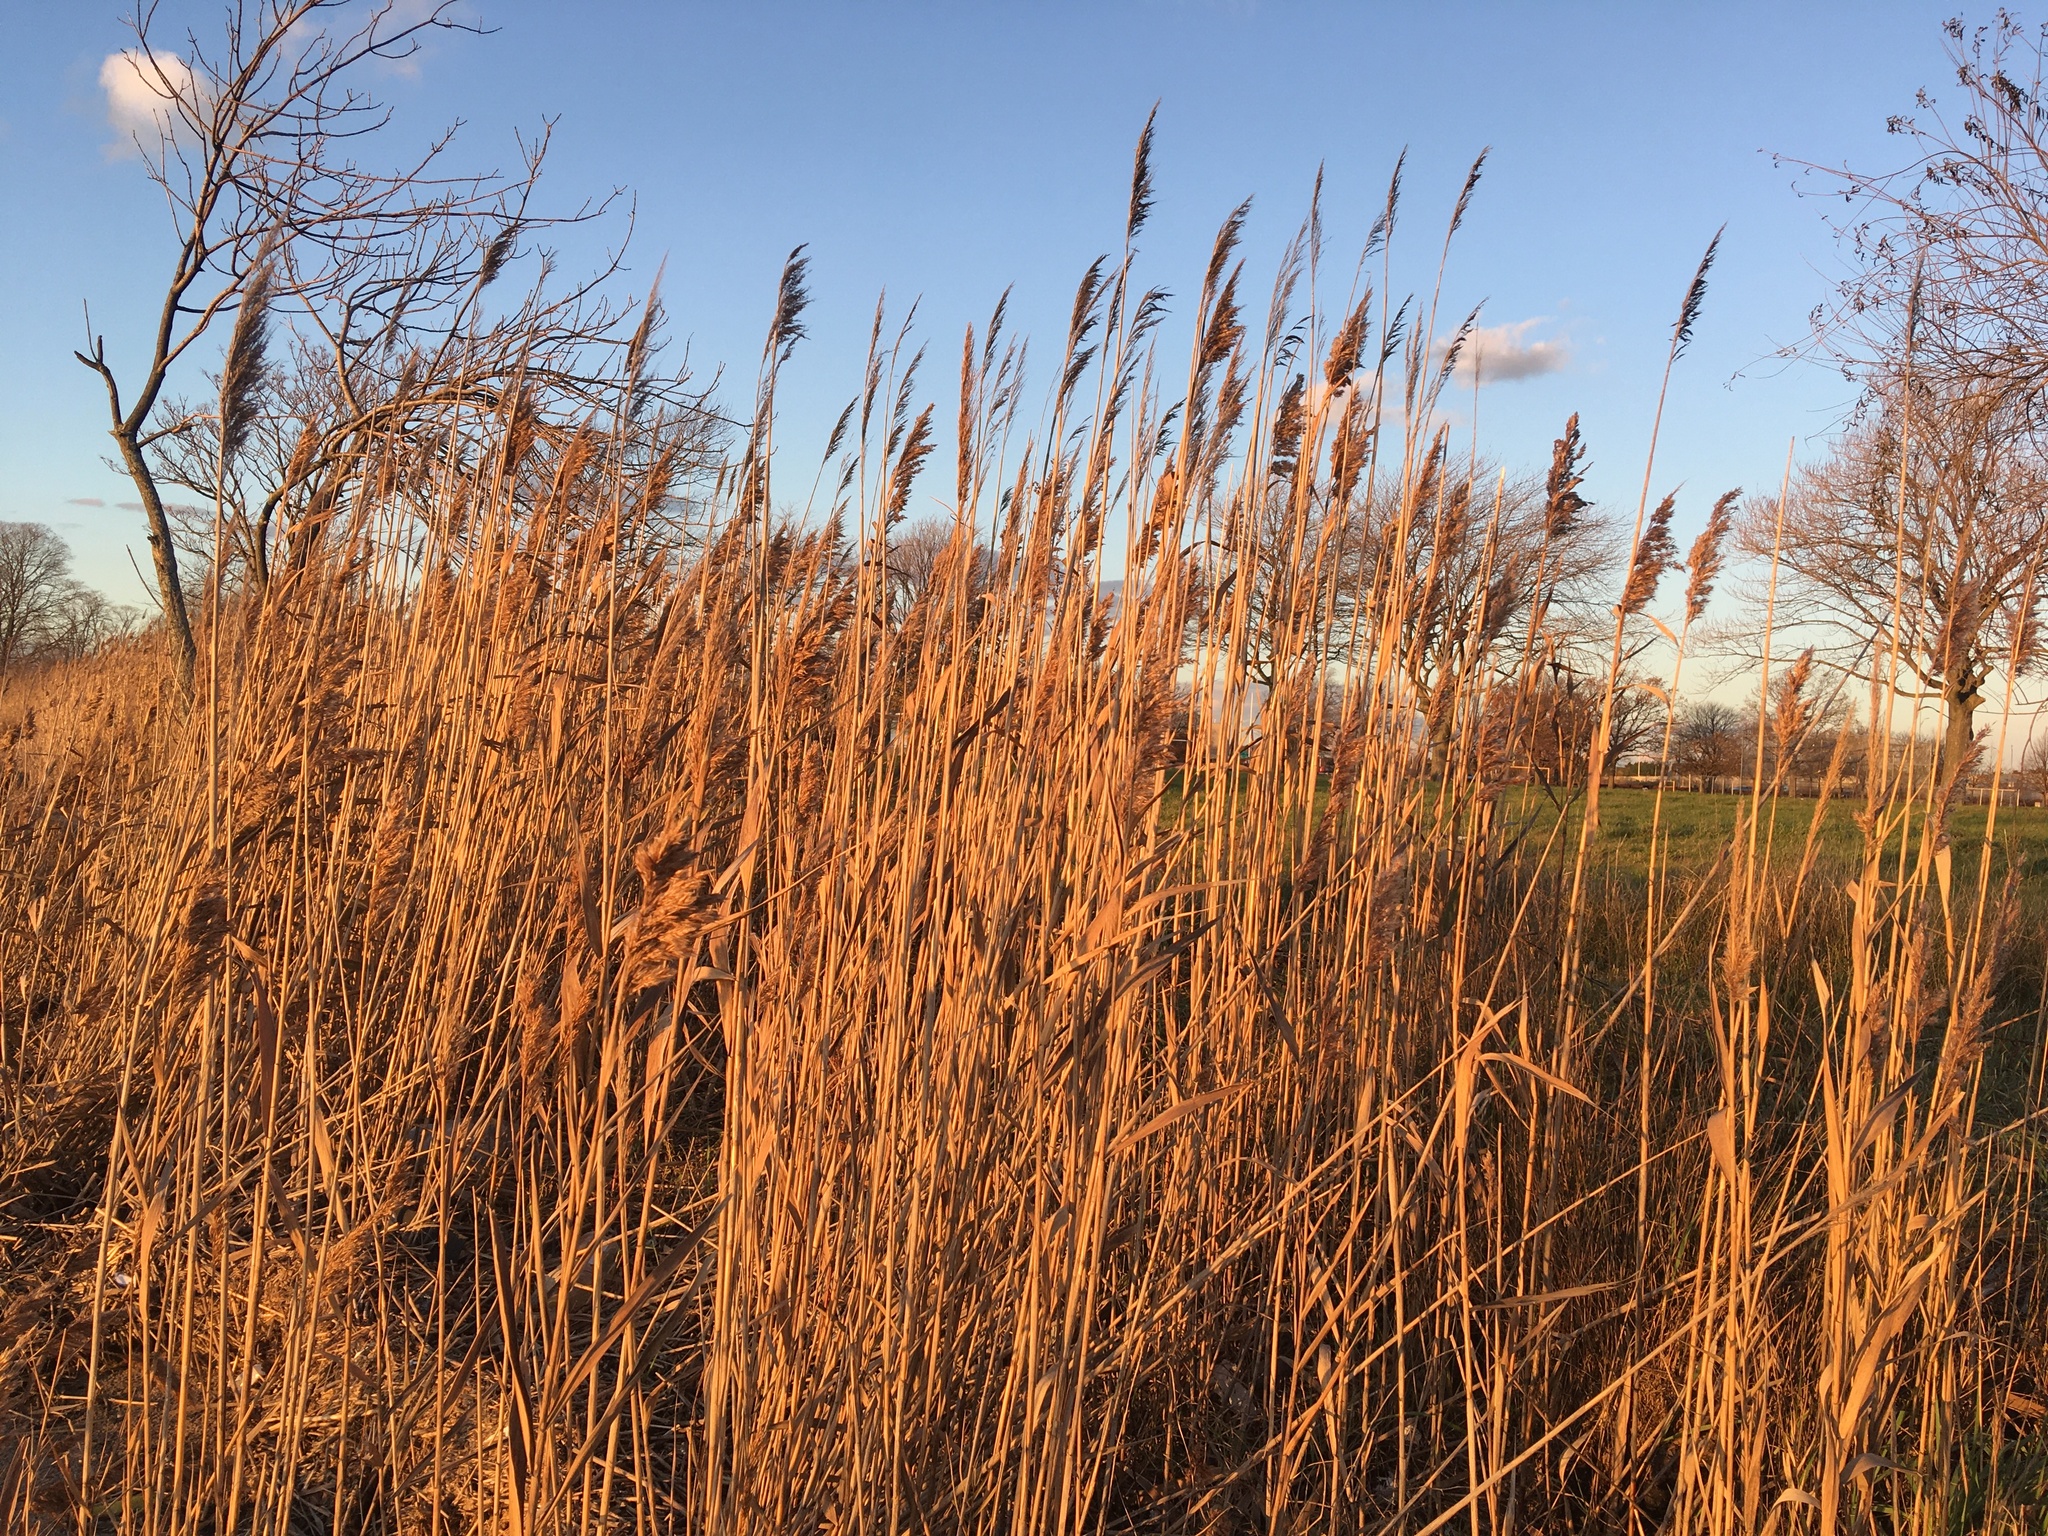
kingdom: Plantae
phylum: Tracheophyta
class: Liliopsida
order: Poales
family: Poaceae
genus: Phragmites
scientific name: Phragmites australis
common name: Common reed
